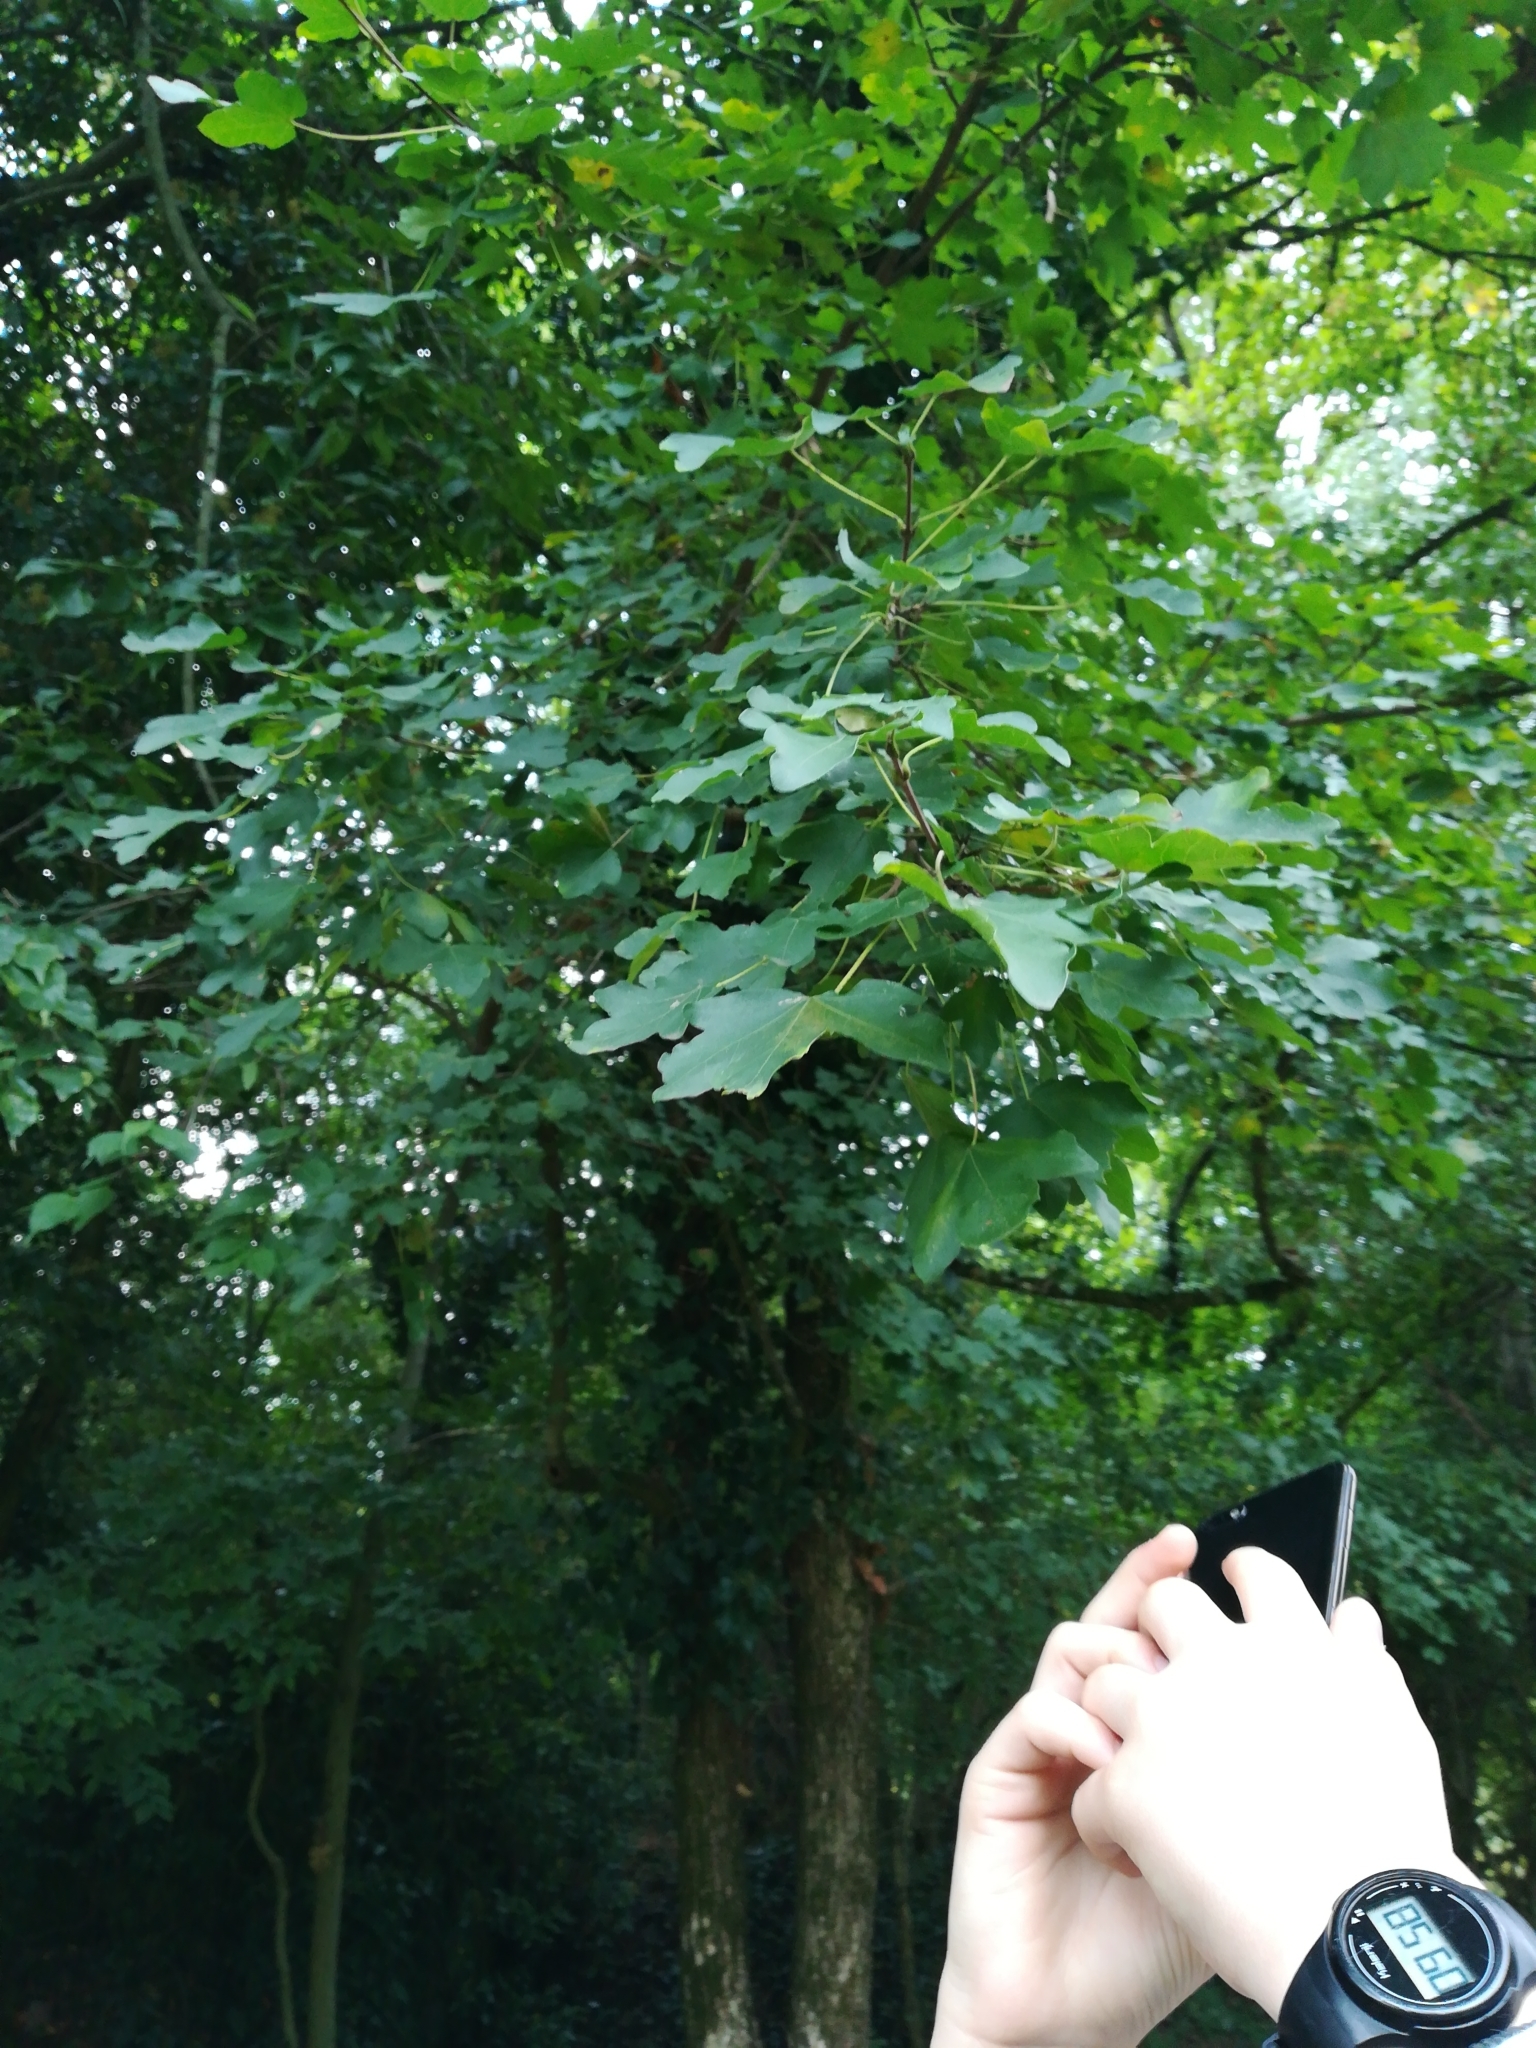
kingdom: Plantae
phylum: Tracheophyta
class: Magnoliopsida
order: Sapindales
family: Sapindaceae
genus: Acer
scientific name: Acer campestre
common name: Field maple
